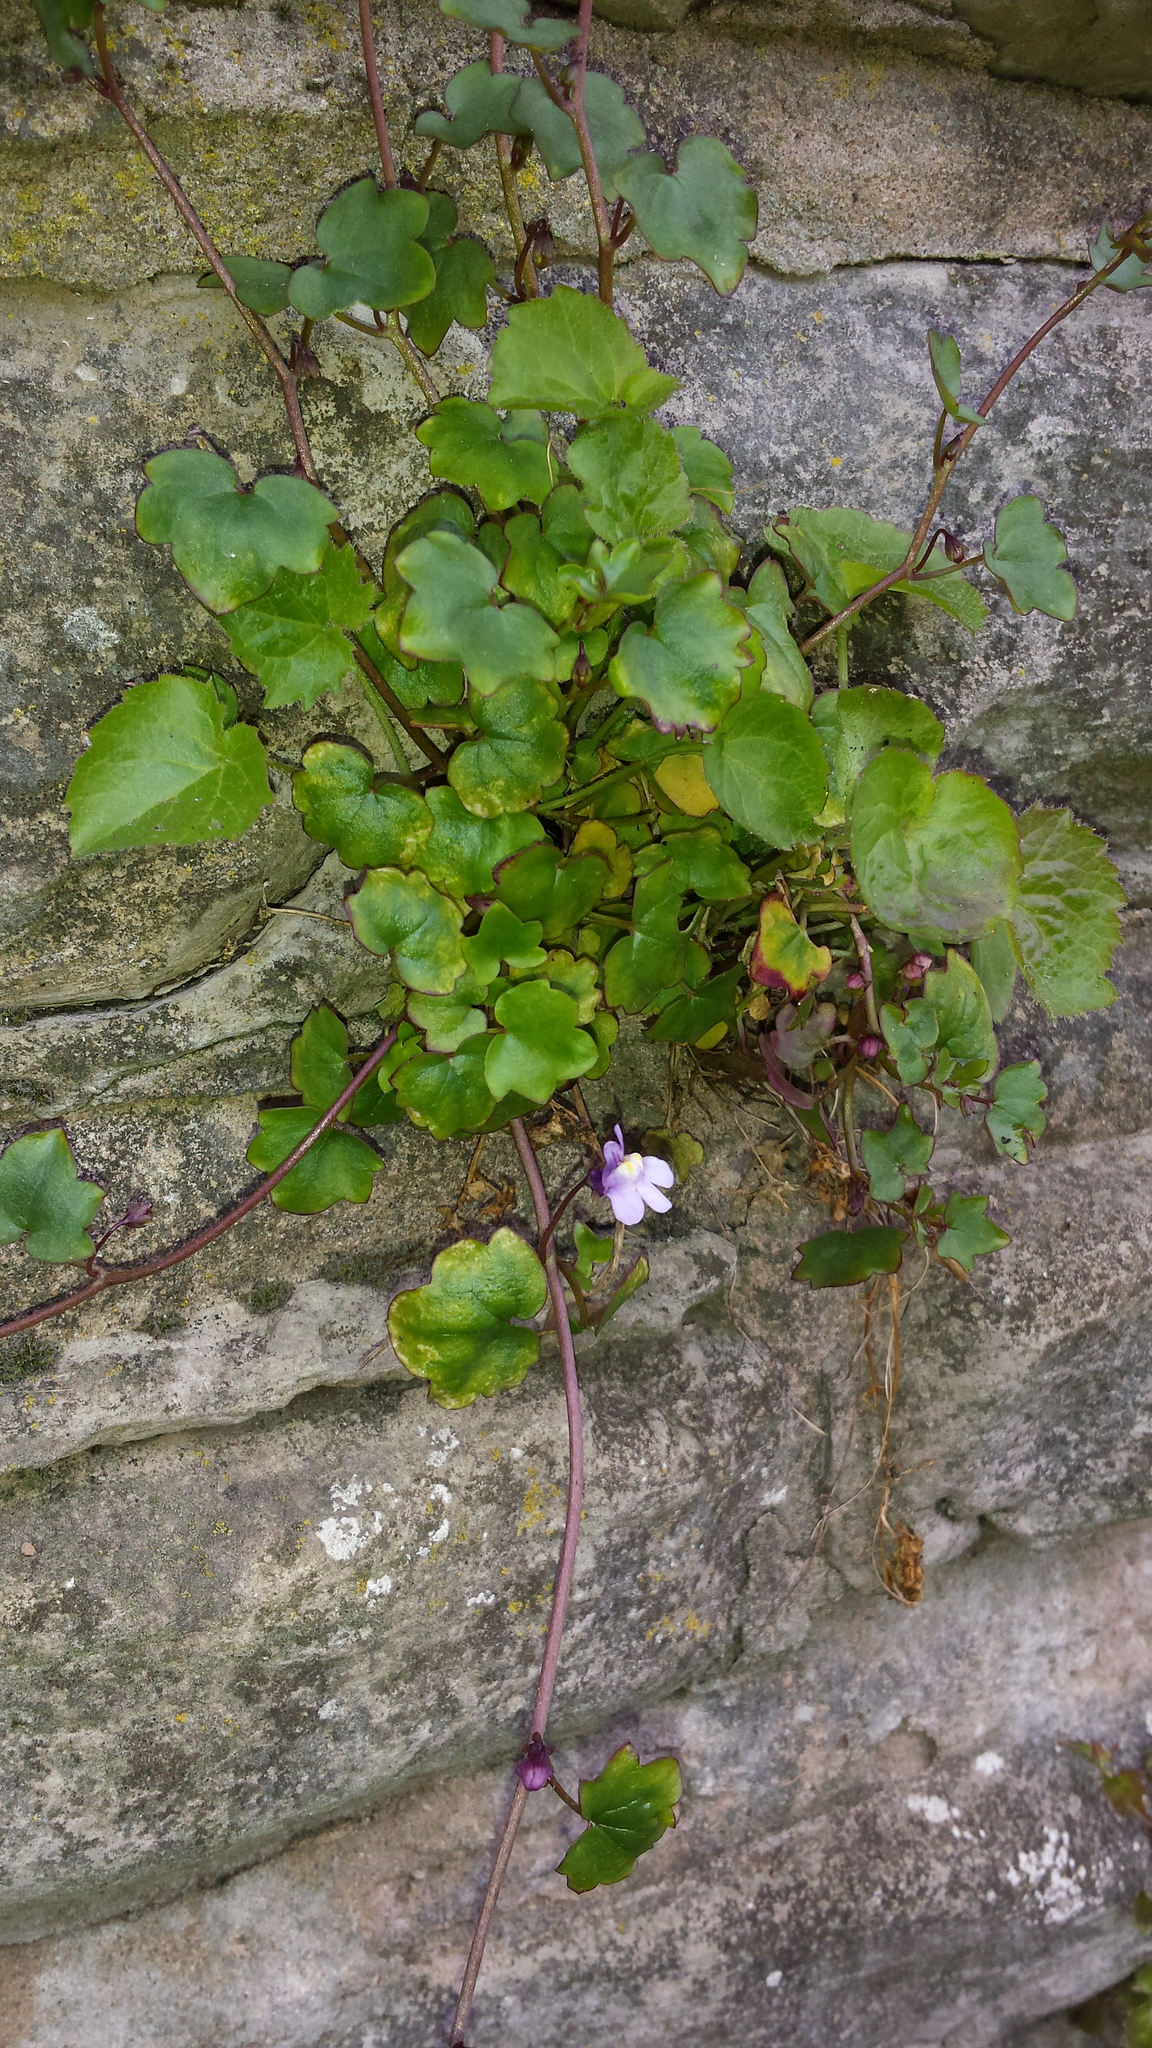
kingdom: Plantae
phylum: Tracheophyta
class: Magnoliopsida
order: Lamiales
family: Plantaginaceae
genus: Cymbalaria
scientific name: Cymbalaria muralis
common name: Ivy-leaved toadflax
